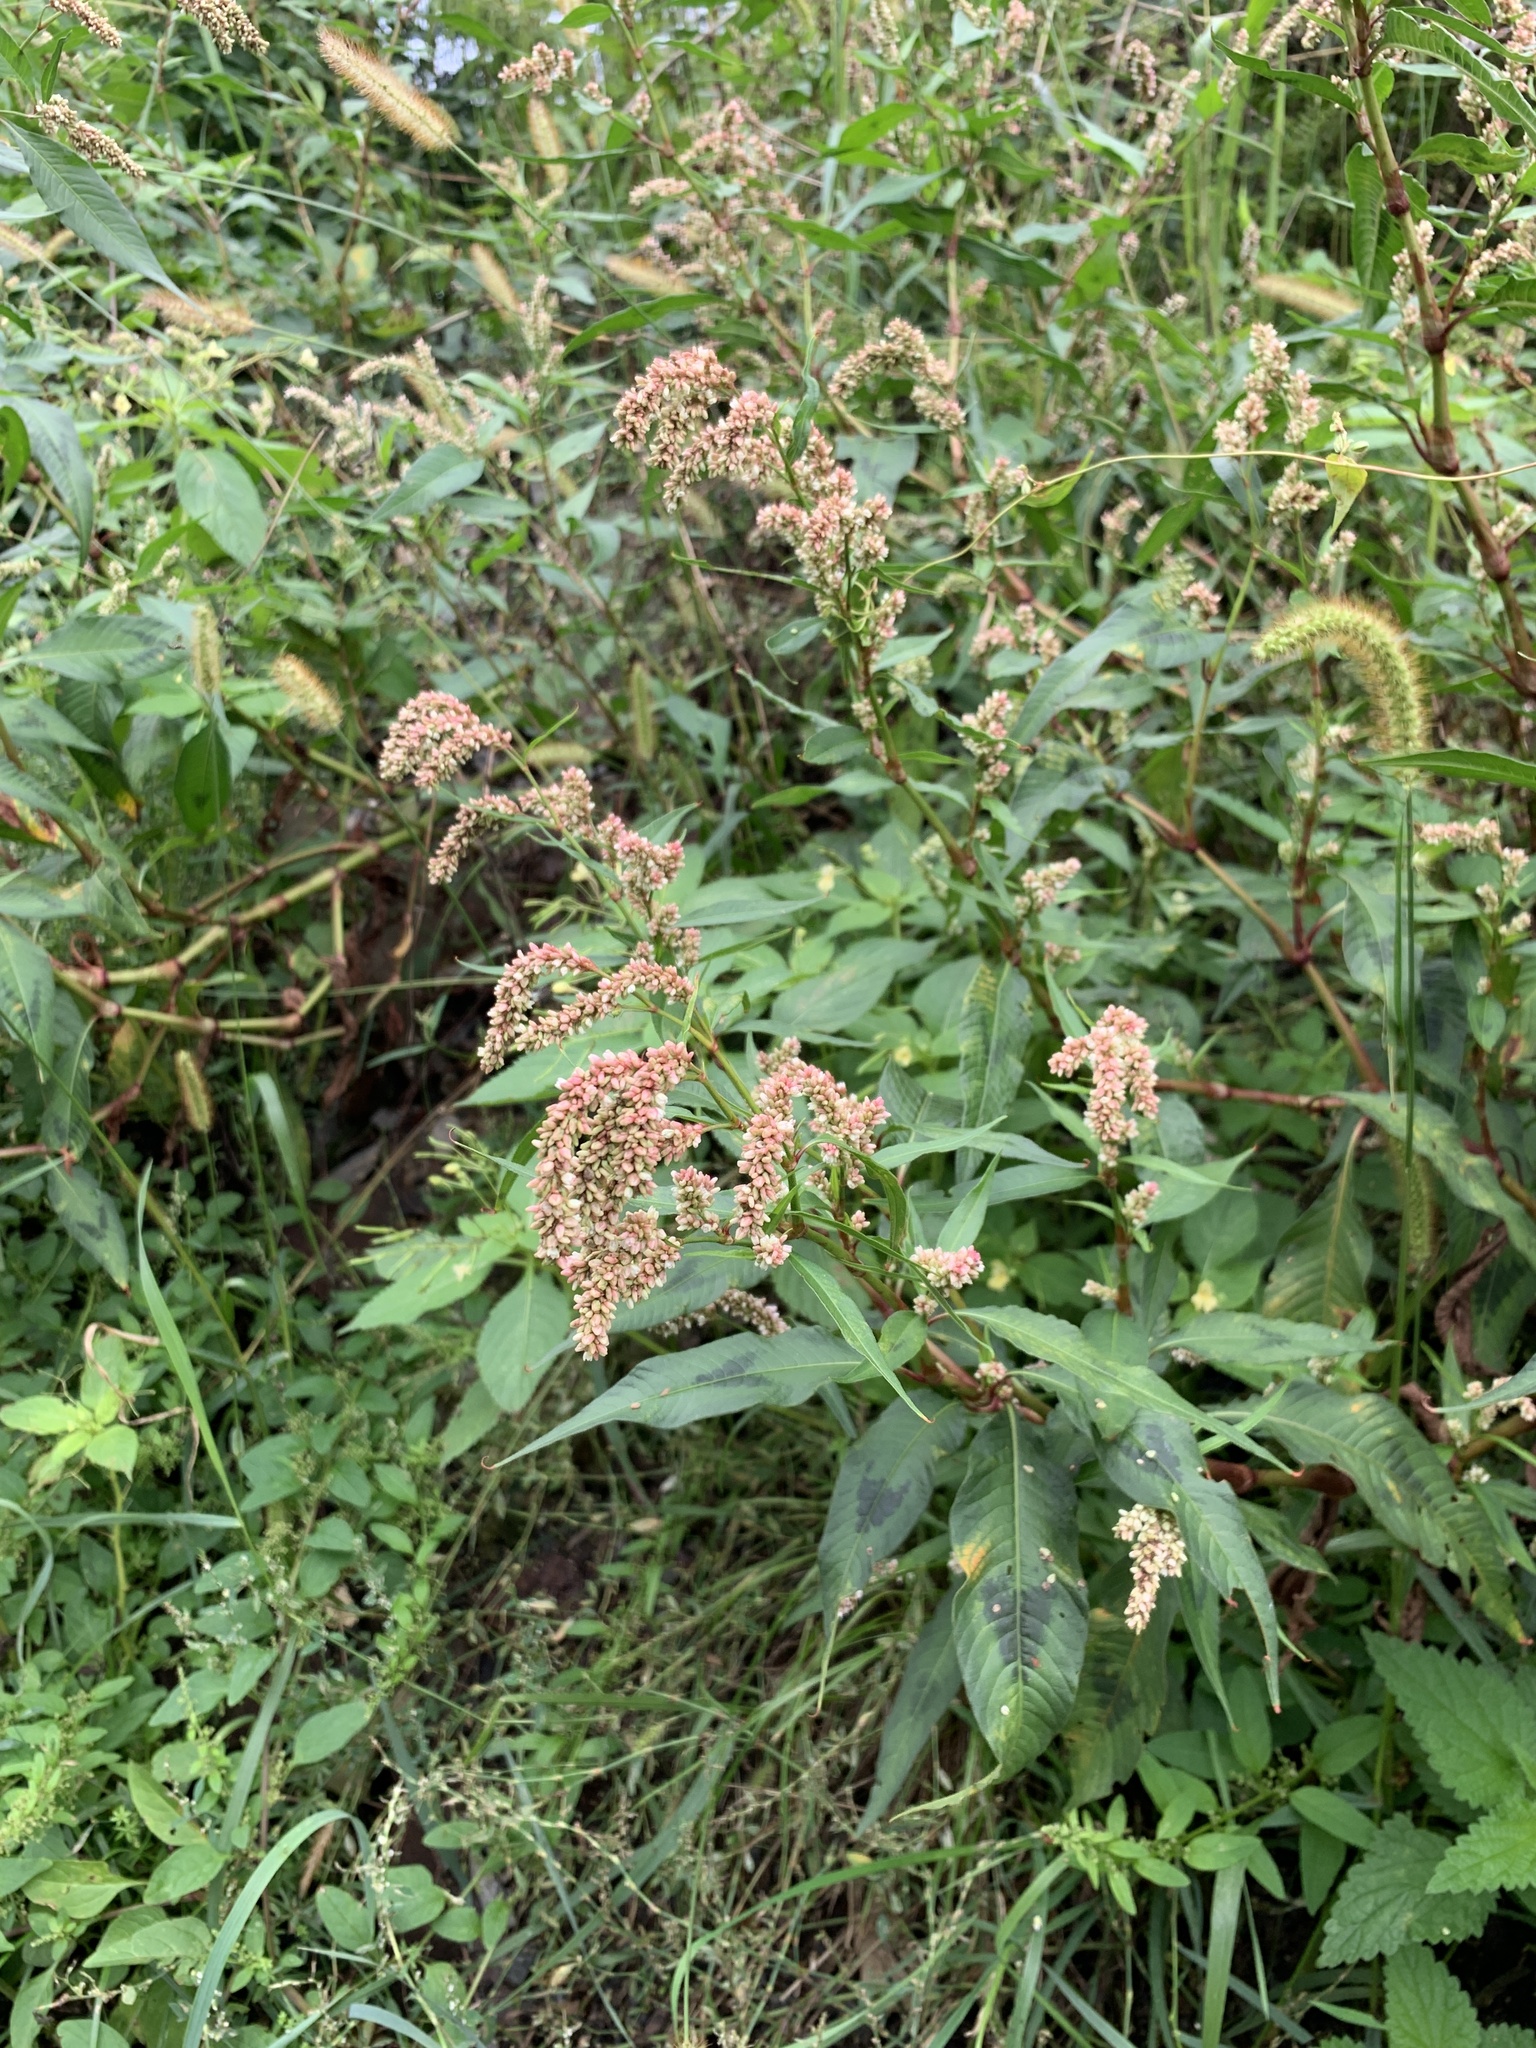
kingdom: Plantae
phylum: Tracheophyta
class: Magnoliopsida
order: Caryophyllales
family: Polygonaceae
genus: Persicaria
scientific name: Persicaria lapathifolia
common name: Curlytop knotweed
